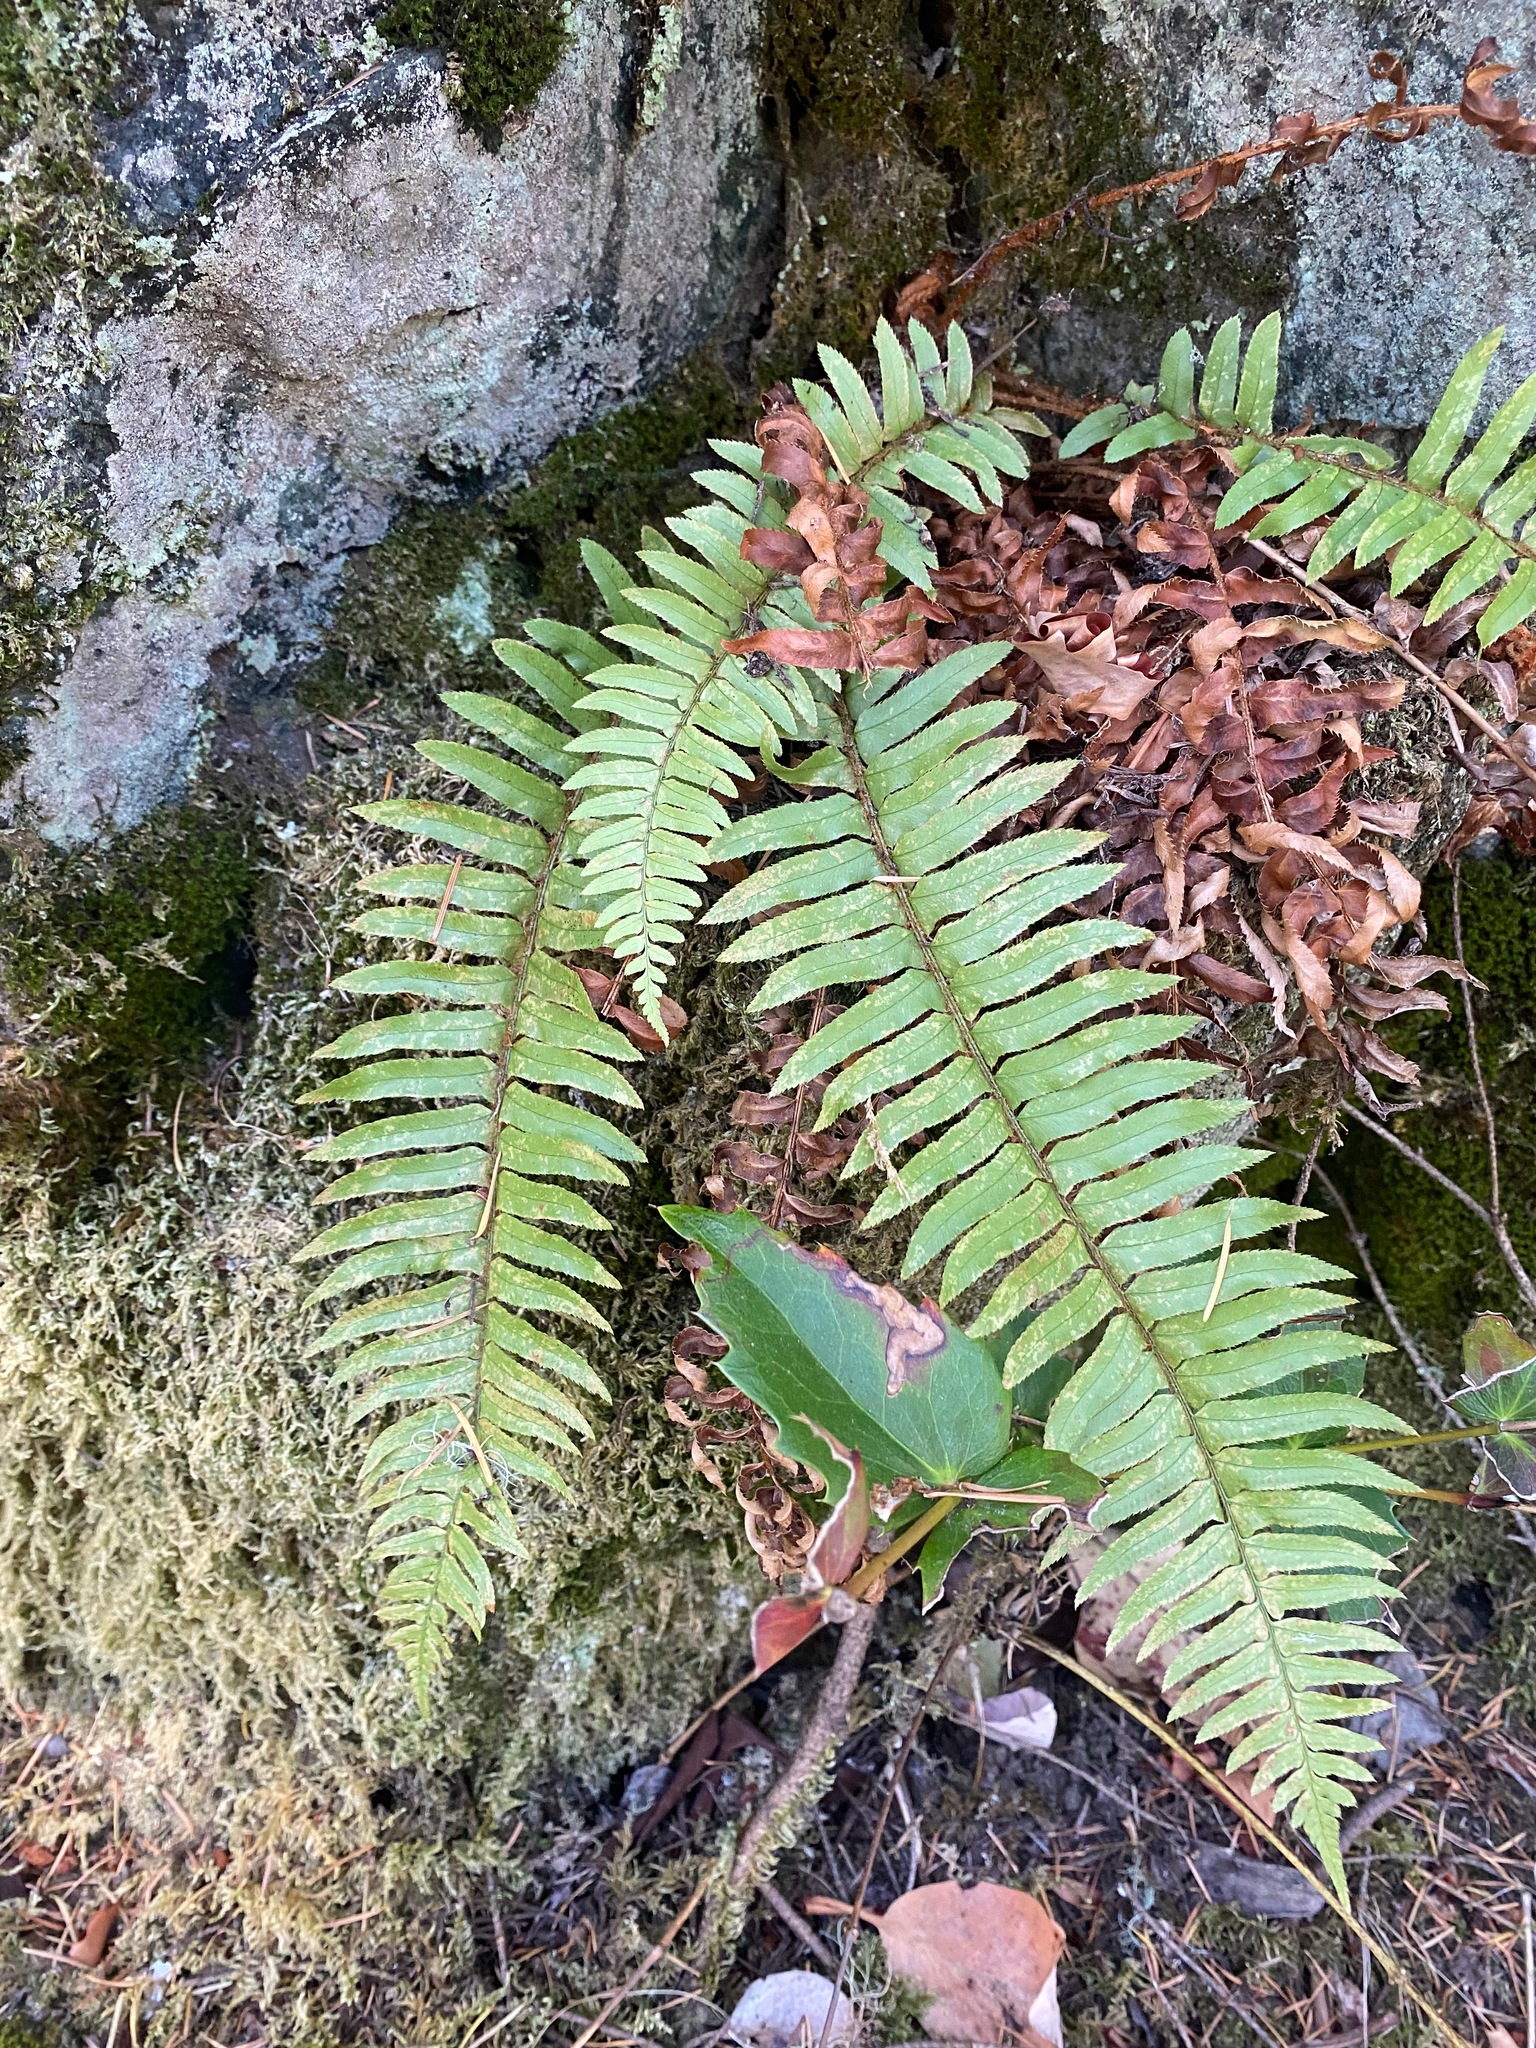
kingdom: Plantae
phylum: Tracheophyta
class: Polypodiopsida
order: Polypodiales
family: Dryopteridaceae
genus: Polystichum
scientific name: Polystichum munitum
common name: Western sword-fern
